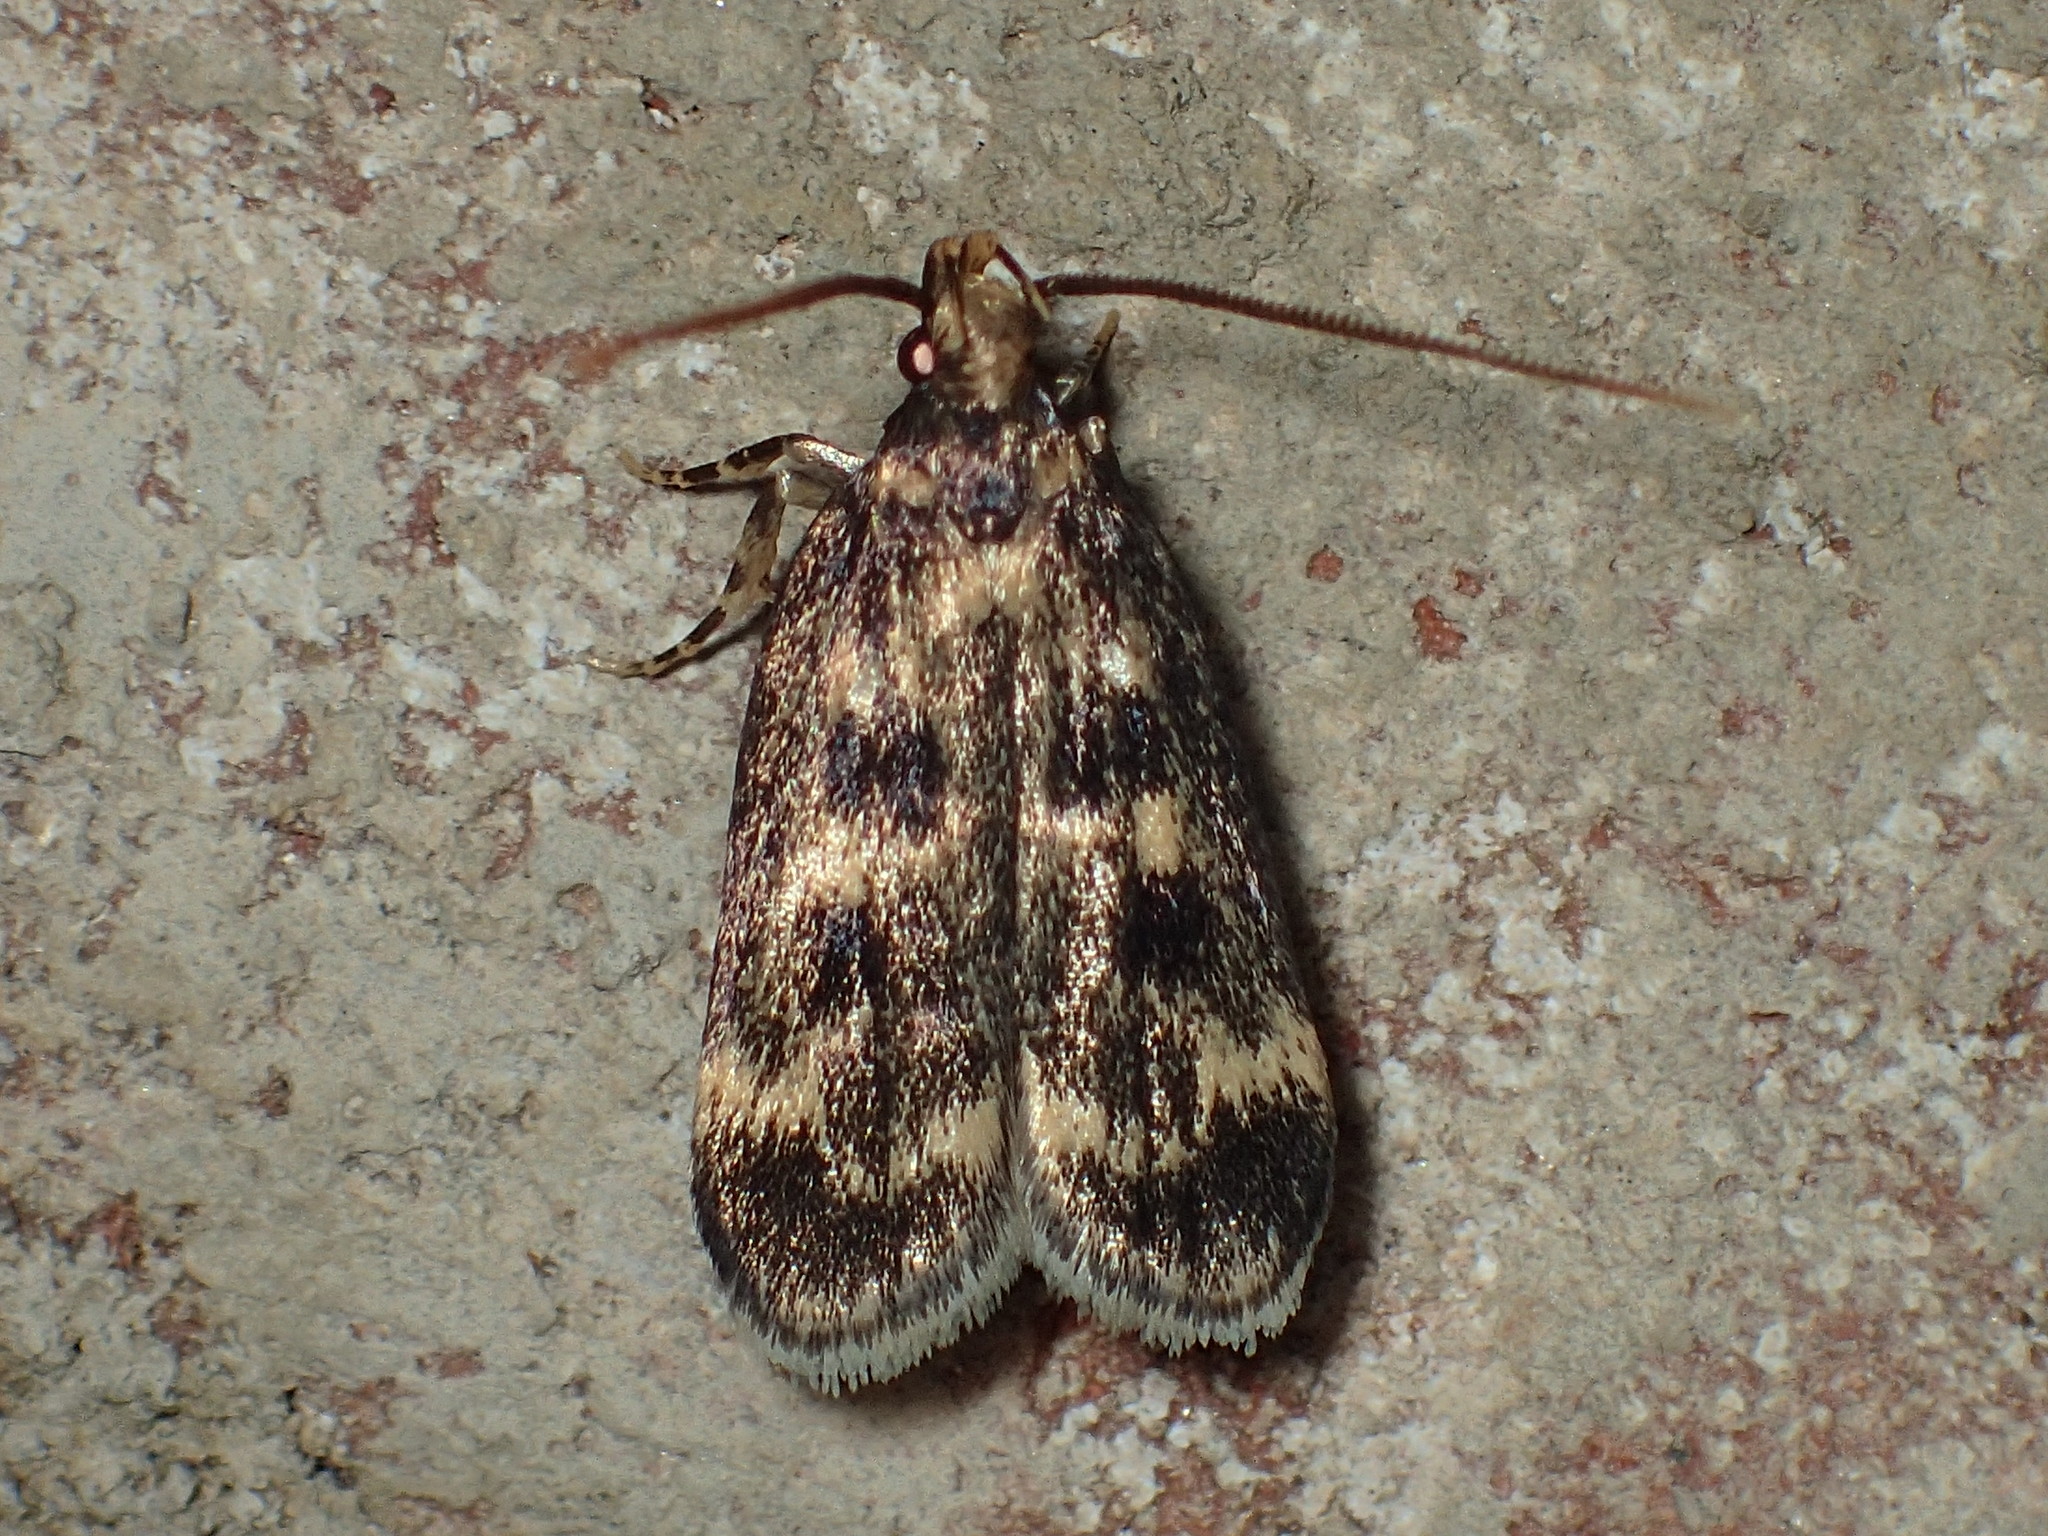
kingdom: Animalia
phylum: Arthropoda
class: Insecta
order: Lepidoptera
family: Lecithoceridae
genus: Martyringa
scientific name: Martyringa latipennis
